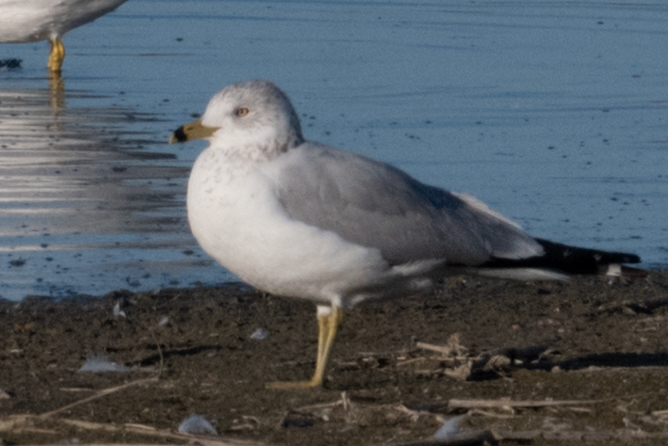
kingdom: Animalia
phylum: Chordata
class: Aves
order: Charadriiformes
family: Laridae
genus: Larus
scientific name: Larus delawarensis
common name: Ring-billed gull
